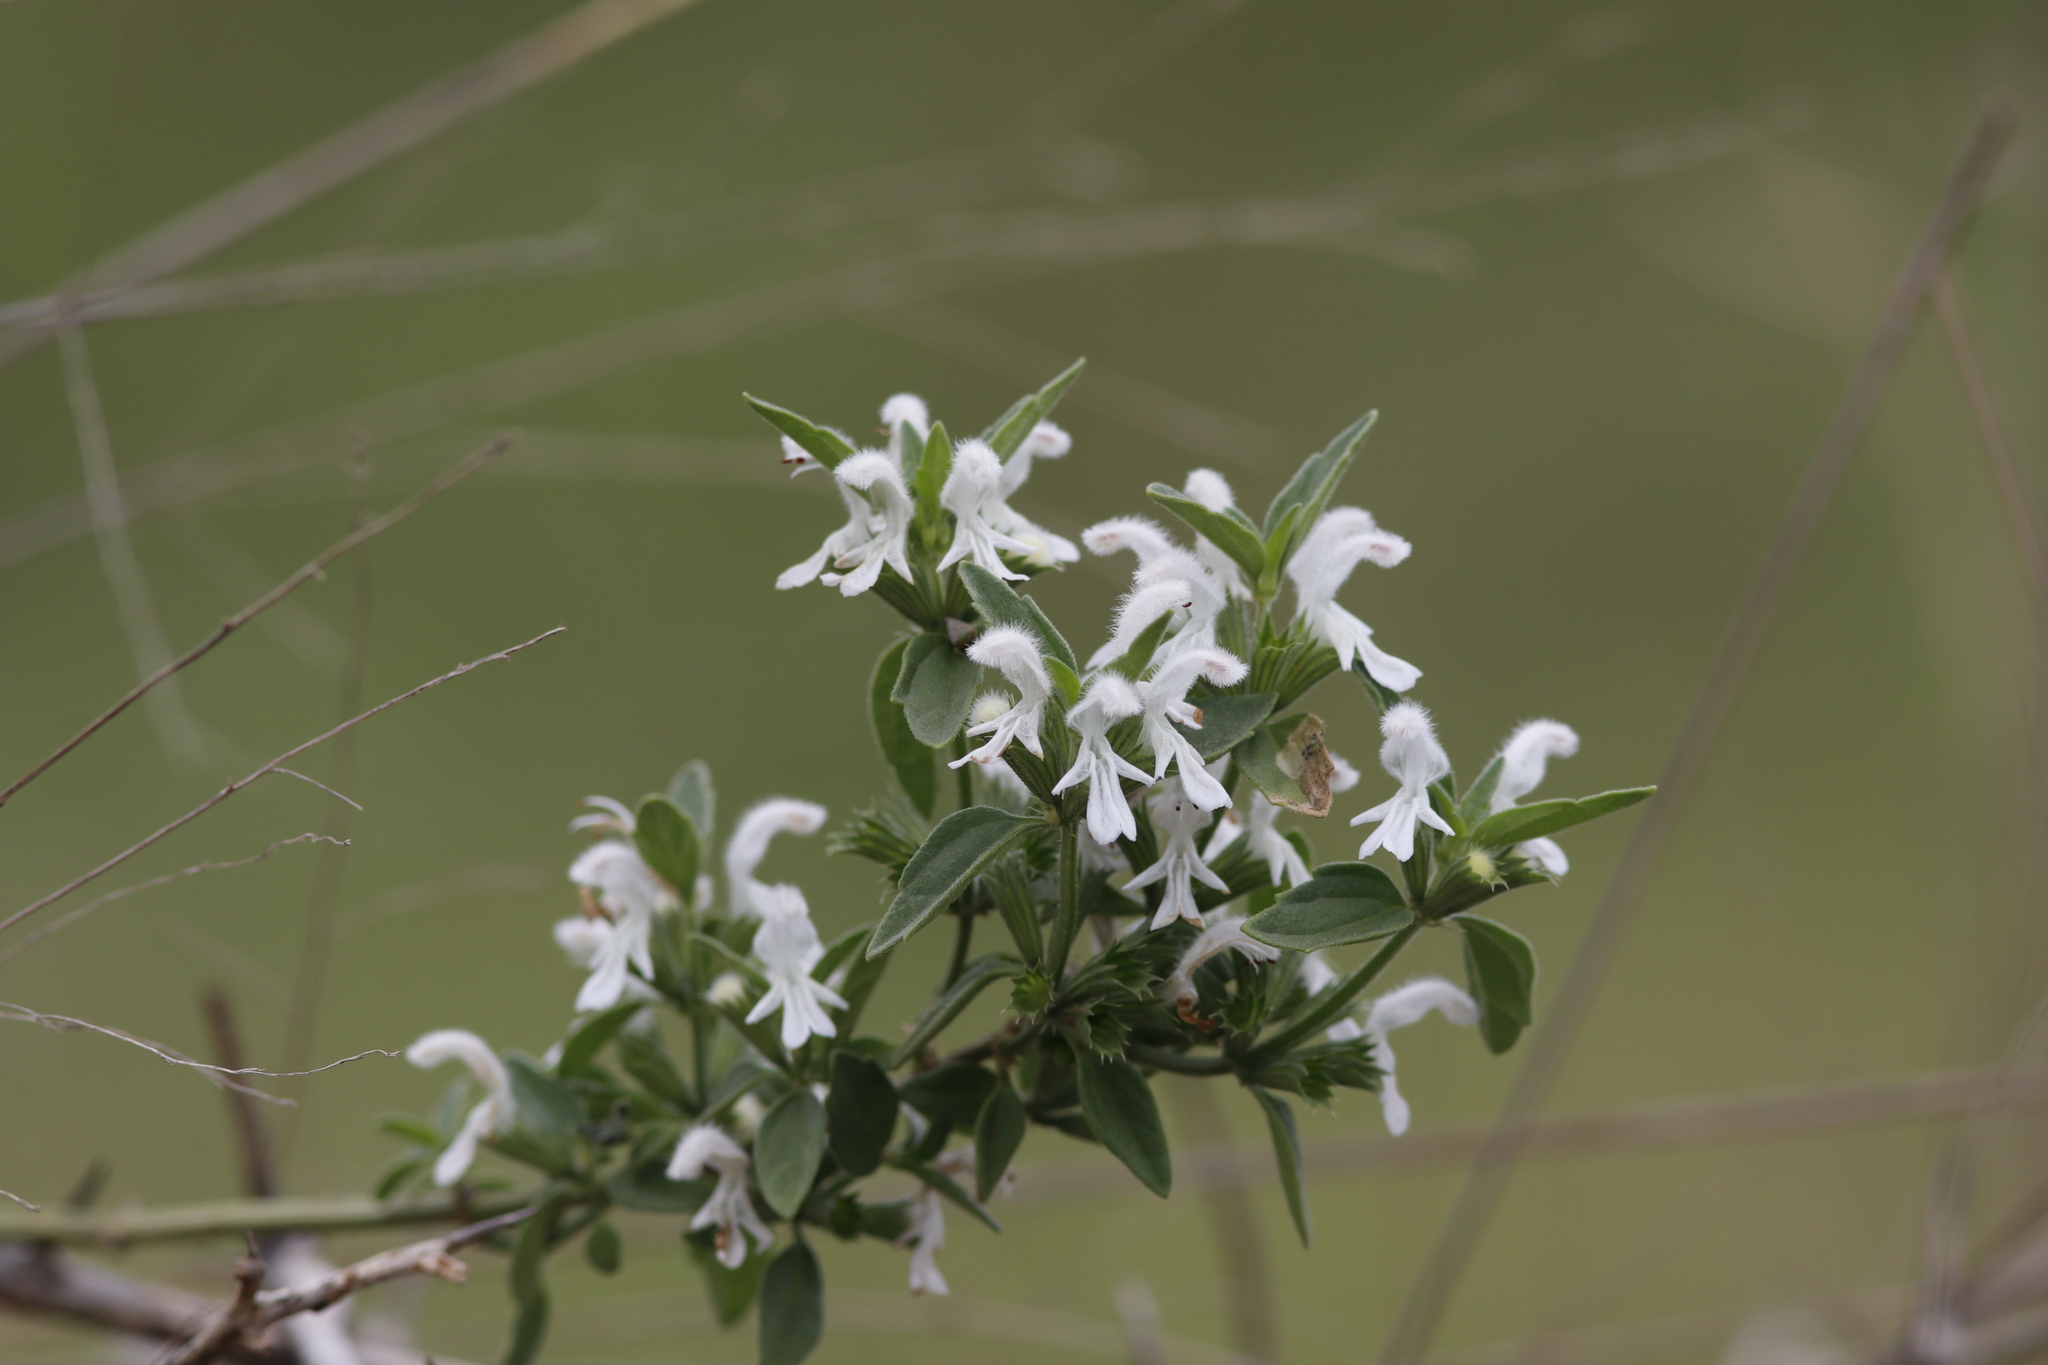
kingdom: Plantae
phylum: Tracheophyta
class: Magnoliopsida
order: Lamiales
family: Lamiaceae
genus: Leucas
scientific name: Leucas glabrata
